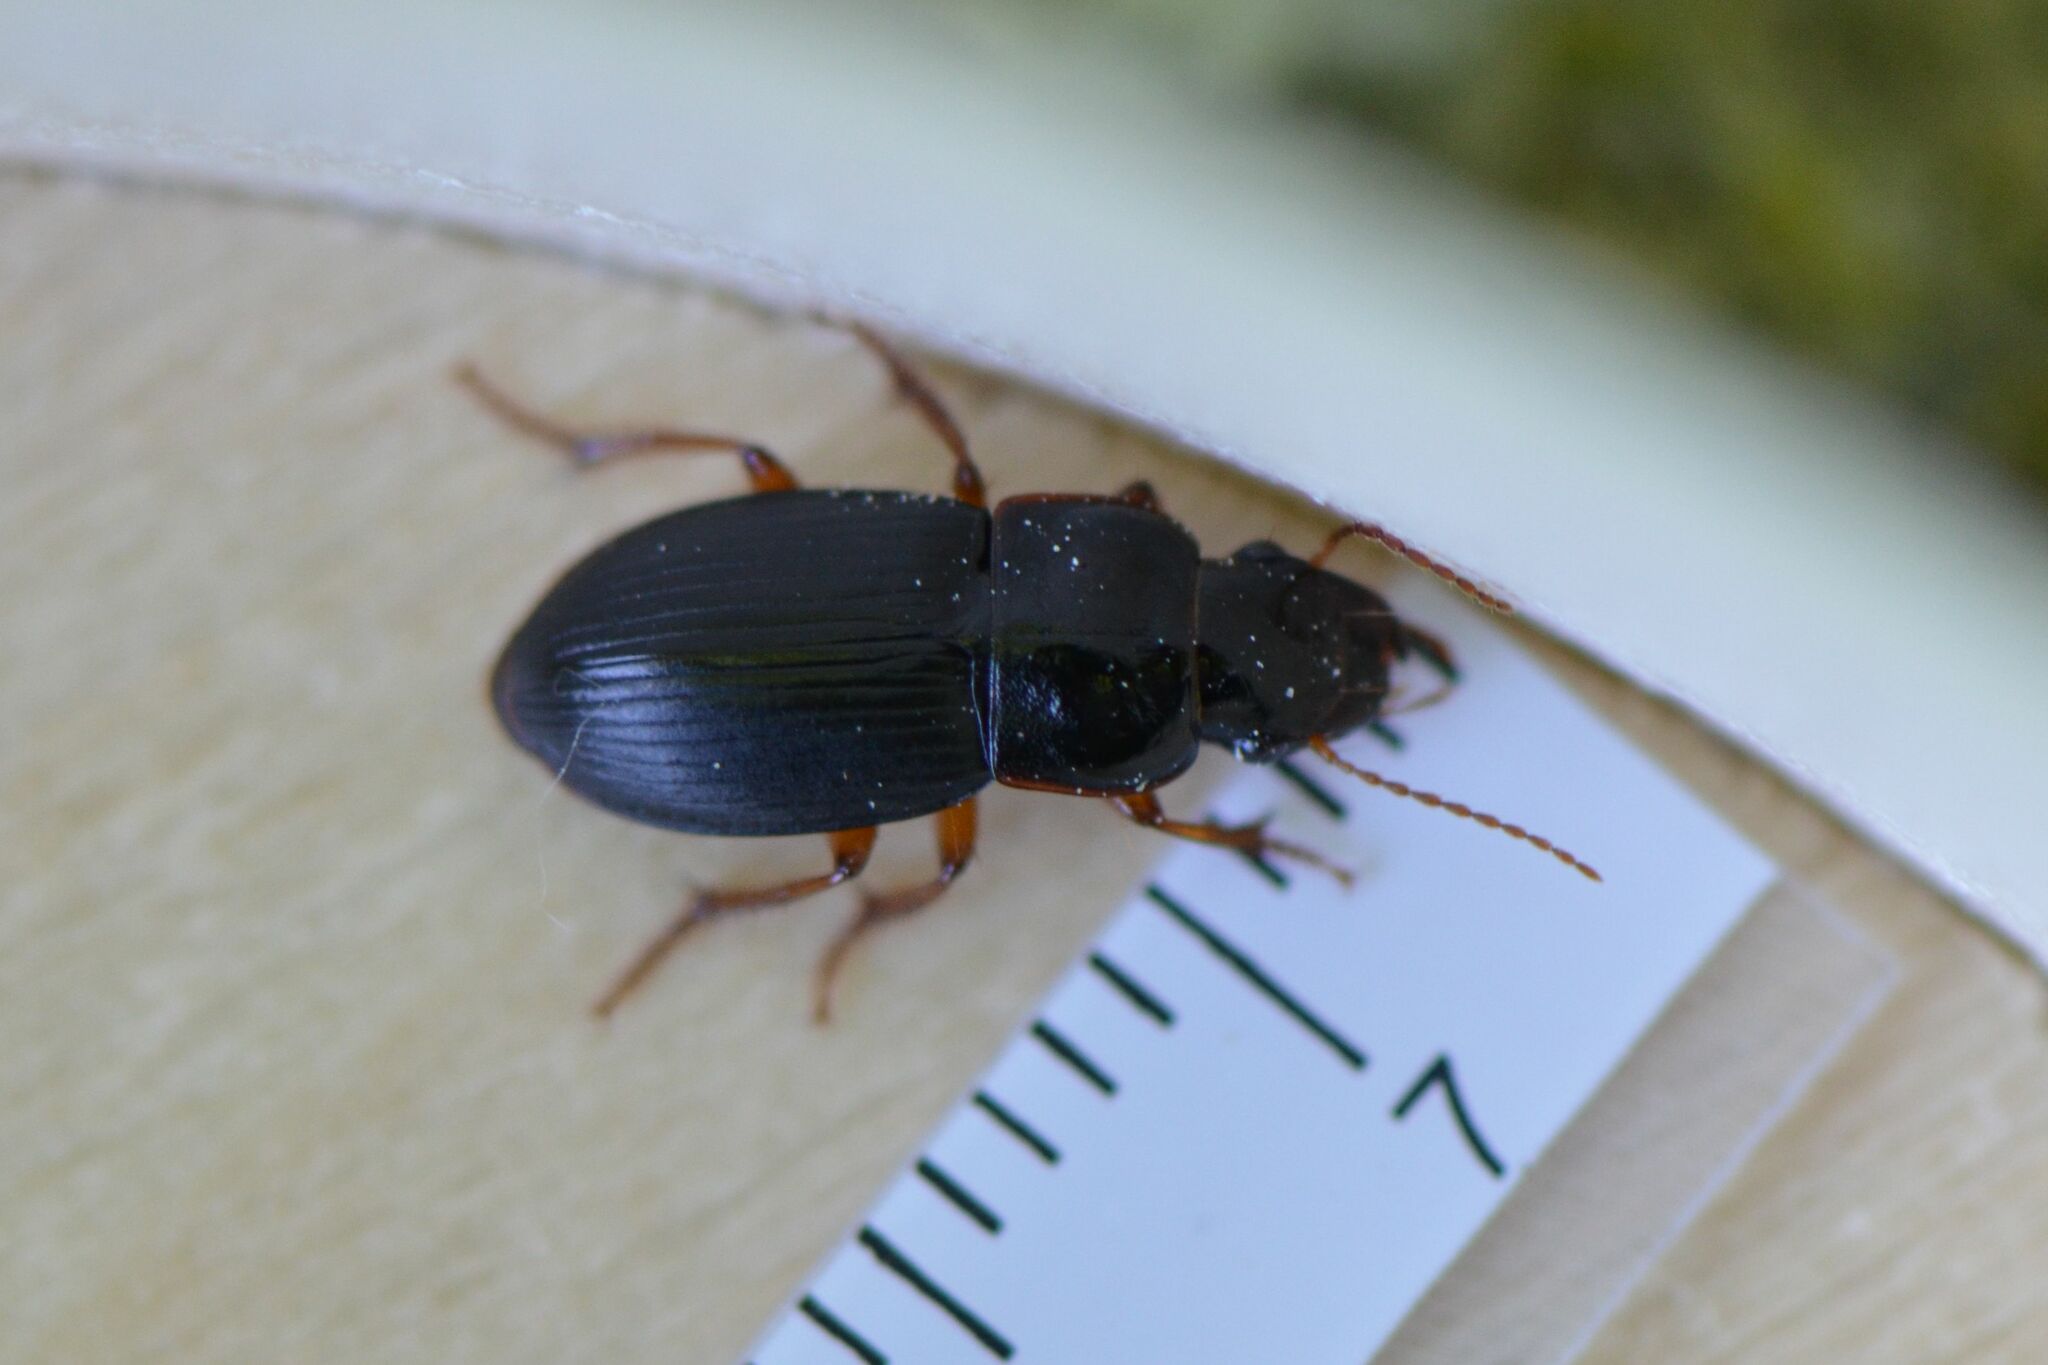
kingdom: Animalia
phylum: Arthropoda
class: Insecta
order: Coleoptera
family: Carabidae
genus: Harpalus
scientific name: Harpalus latus
